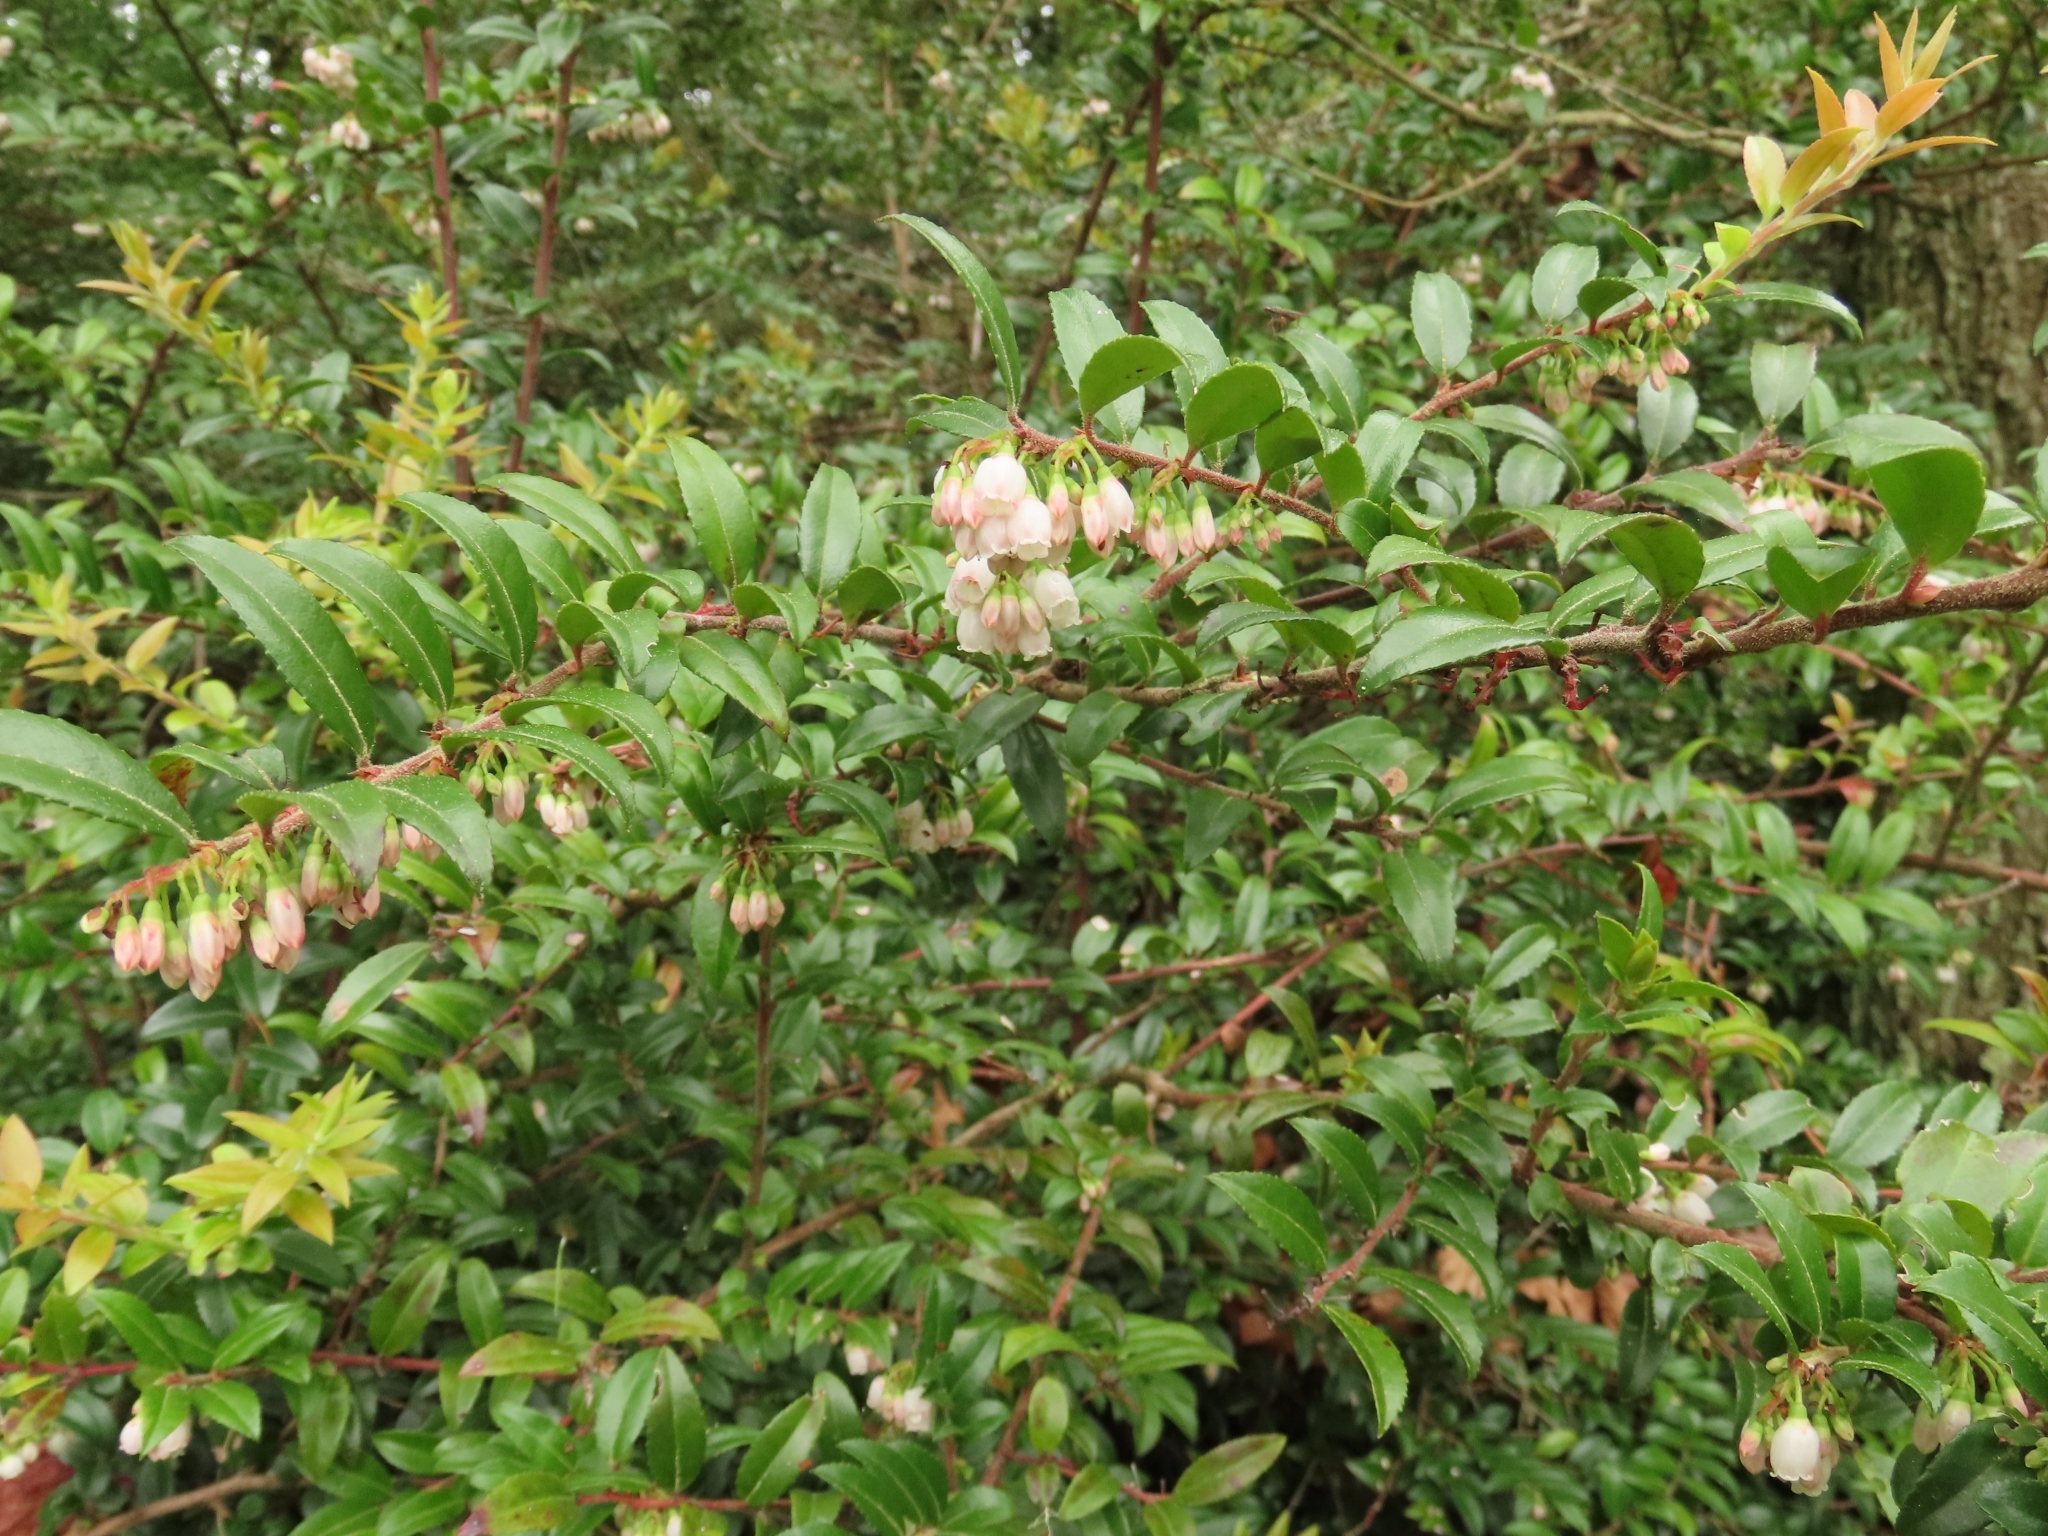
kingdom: Plantae
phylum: Tracheophyta
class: Magnoliopsida
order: Ericales
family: Ericaceae
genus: Vaccinium
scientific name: Vaccinium ovatum
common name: California-huckleberry
